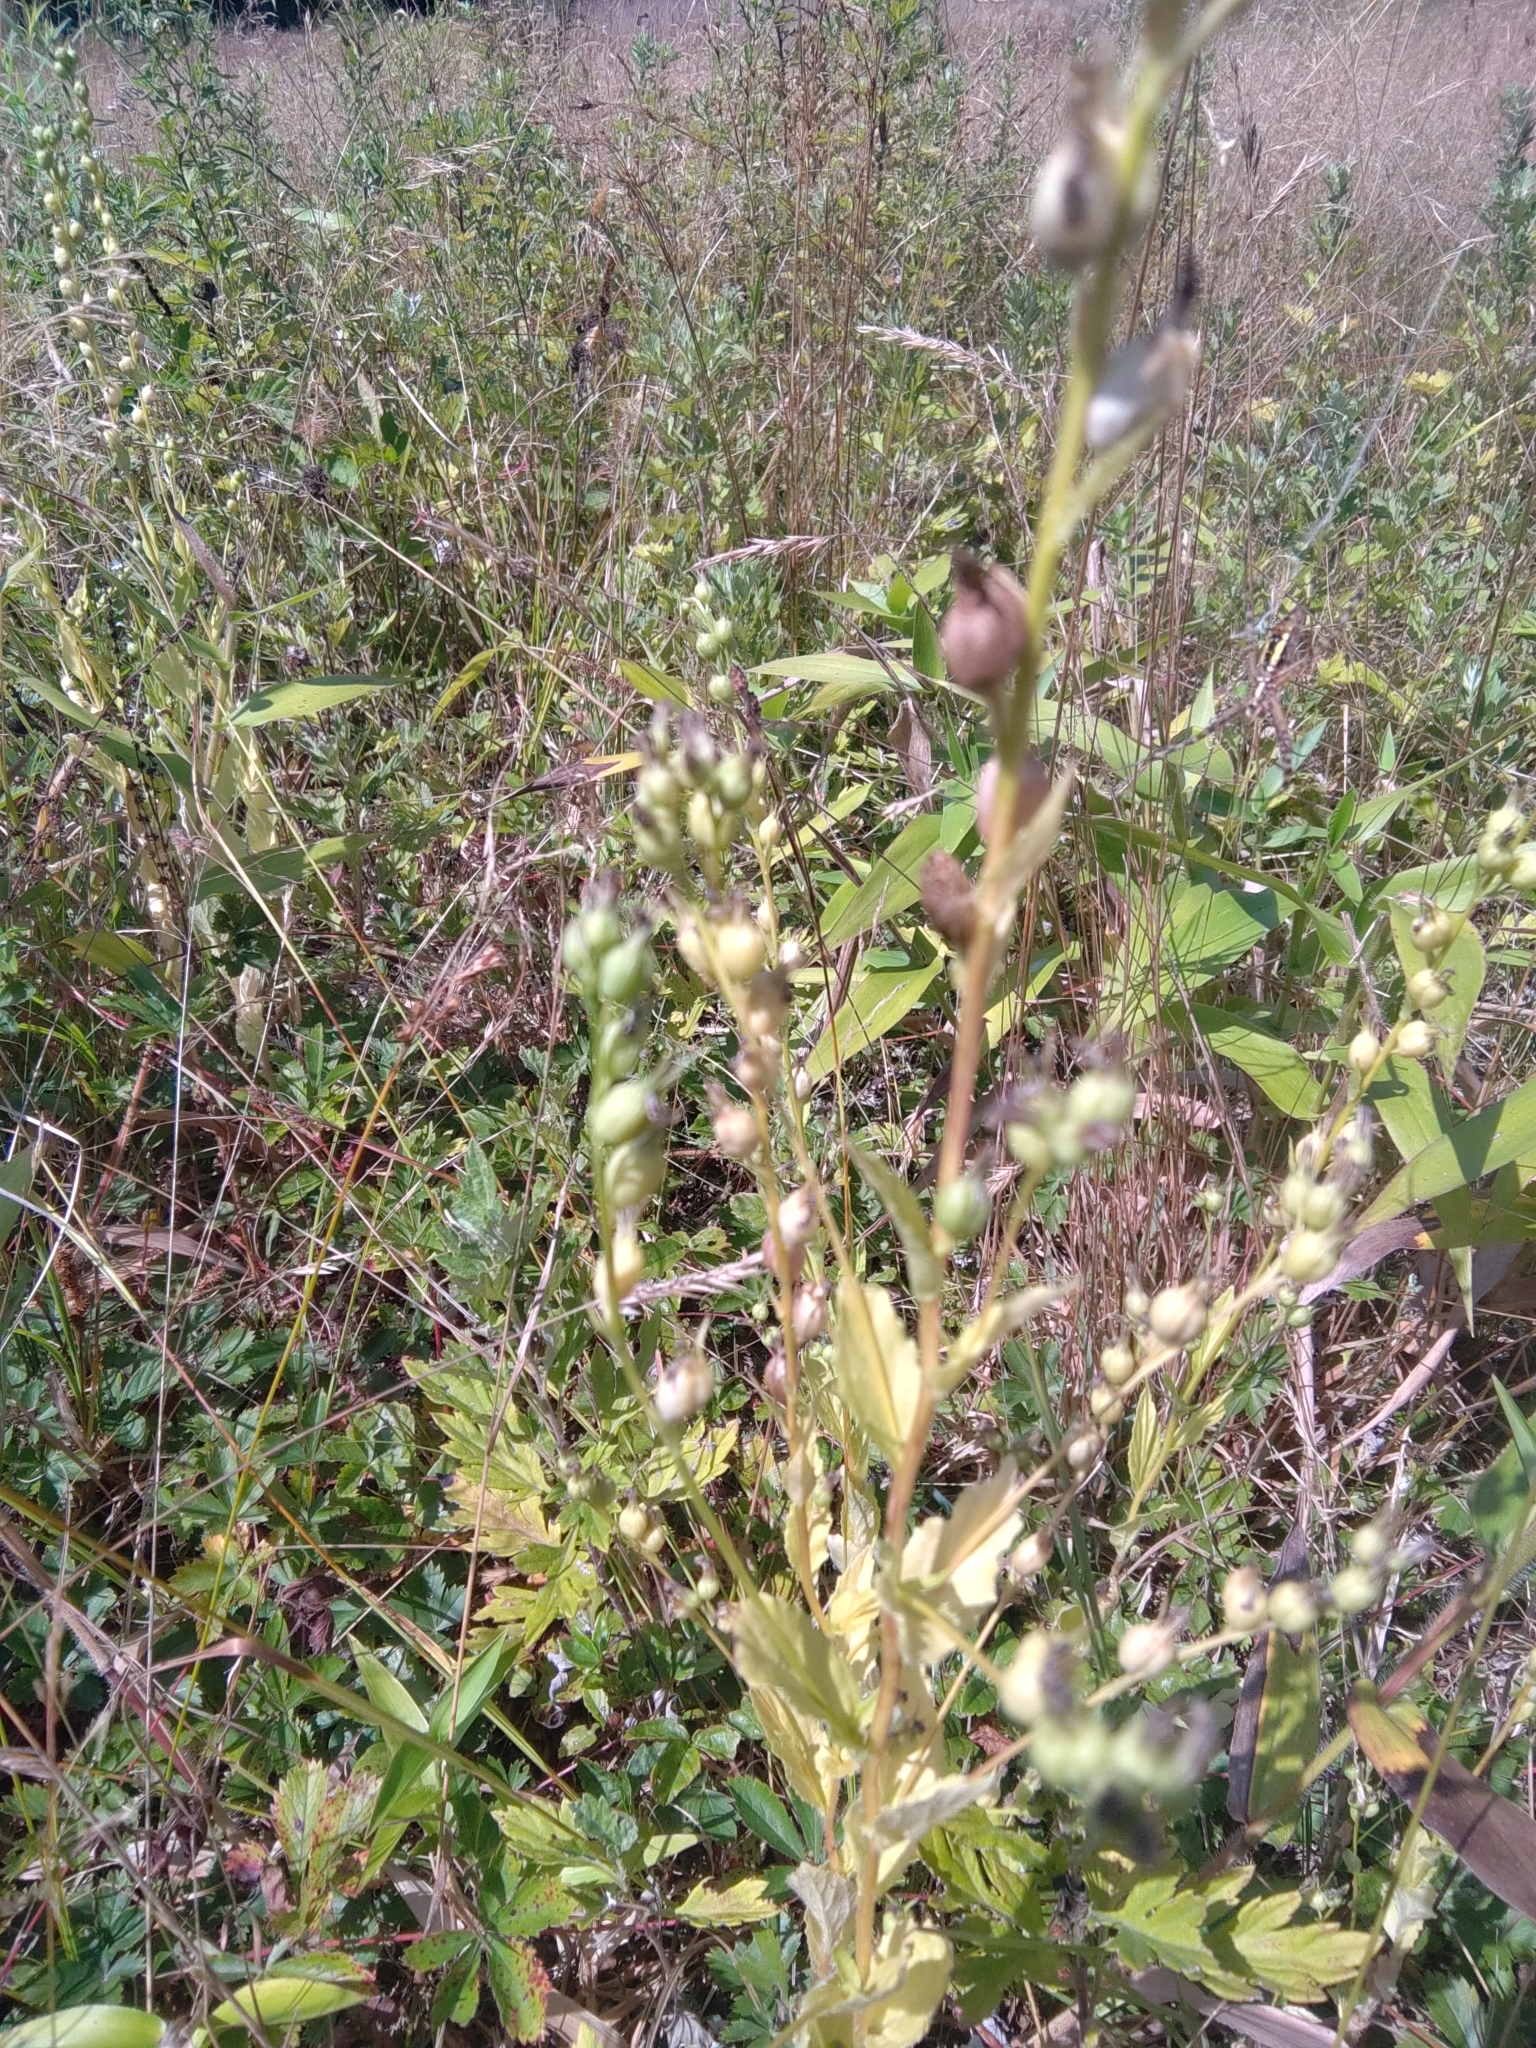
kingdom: Plantae
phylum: Tracheophyta
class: Magnoliopsida
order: Asterales
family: Campanulaceae
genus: Lobelia
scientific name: Lobelia inflata
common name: Indian tobacco
